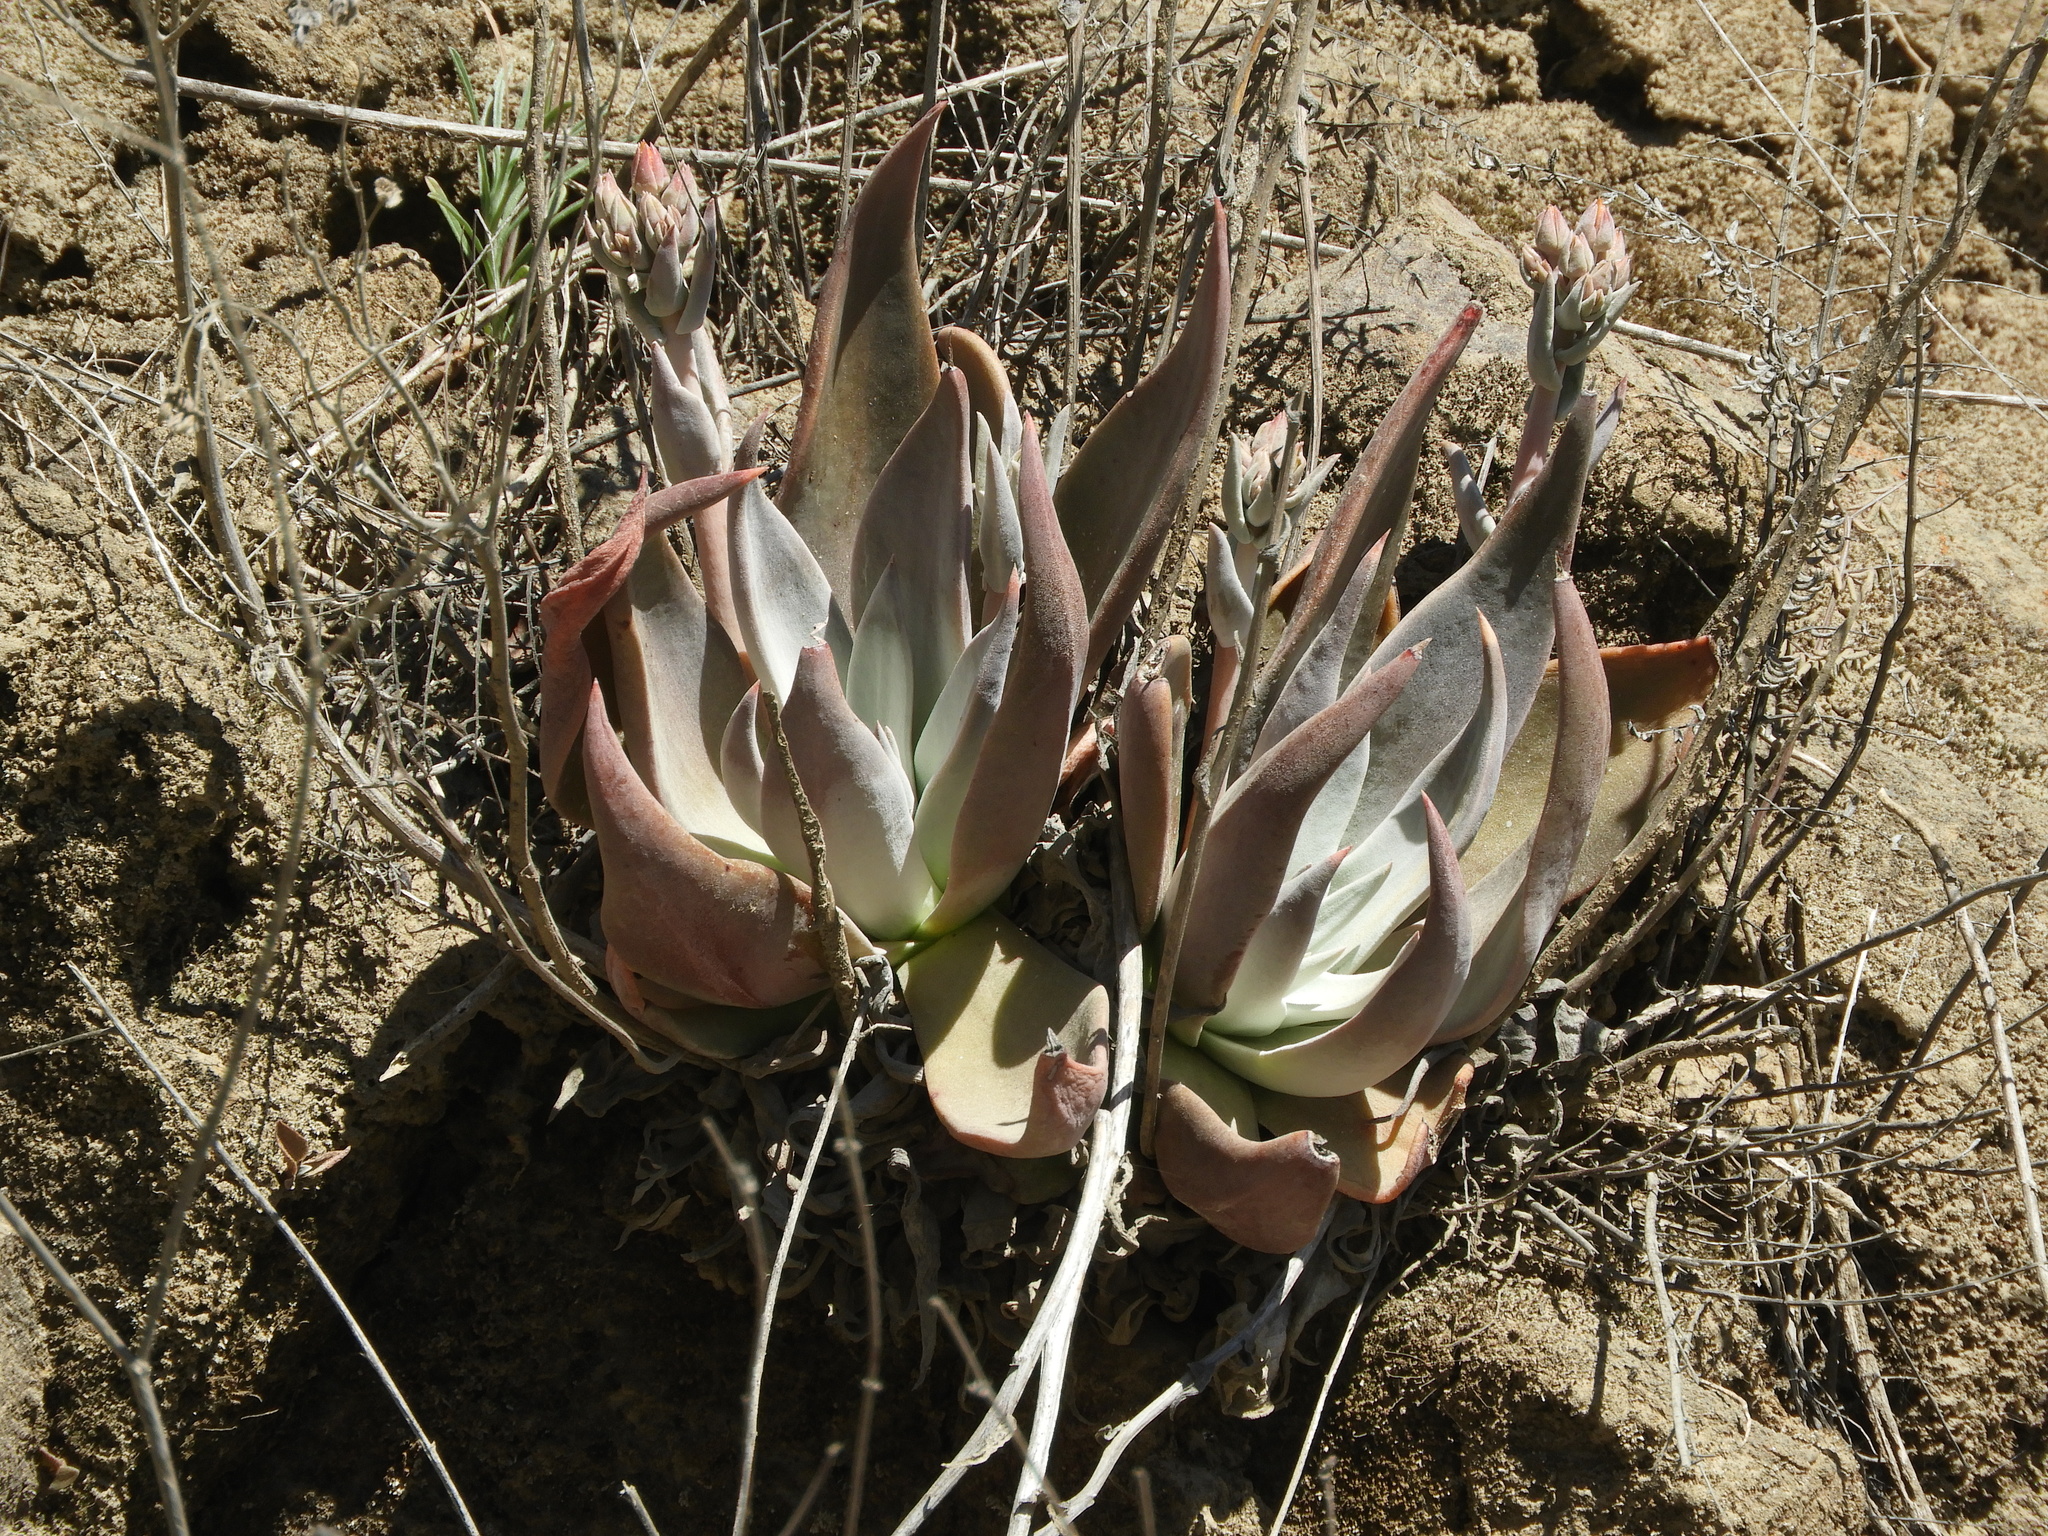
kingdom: Plantae
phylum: Tracheophyta
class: Magnoliopsida
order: Saxifragales
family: Crassulaceae
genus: Dudleya
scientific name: Dudleya cymosa
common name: Canyon dudleya
